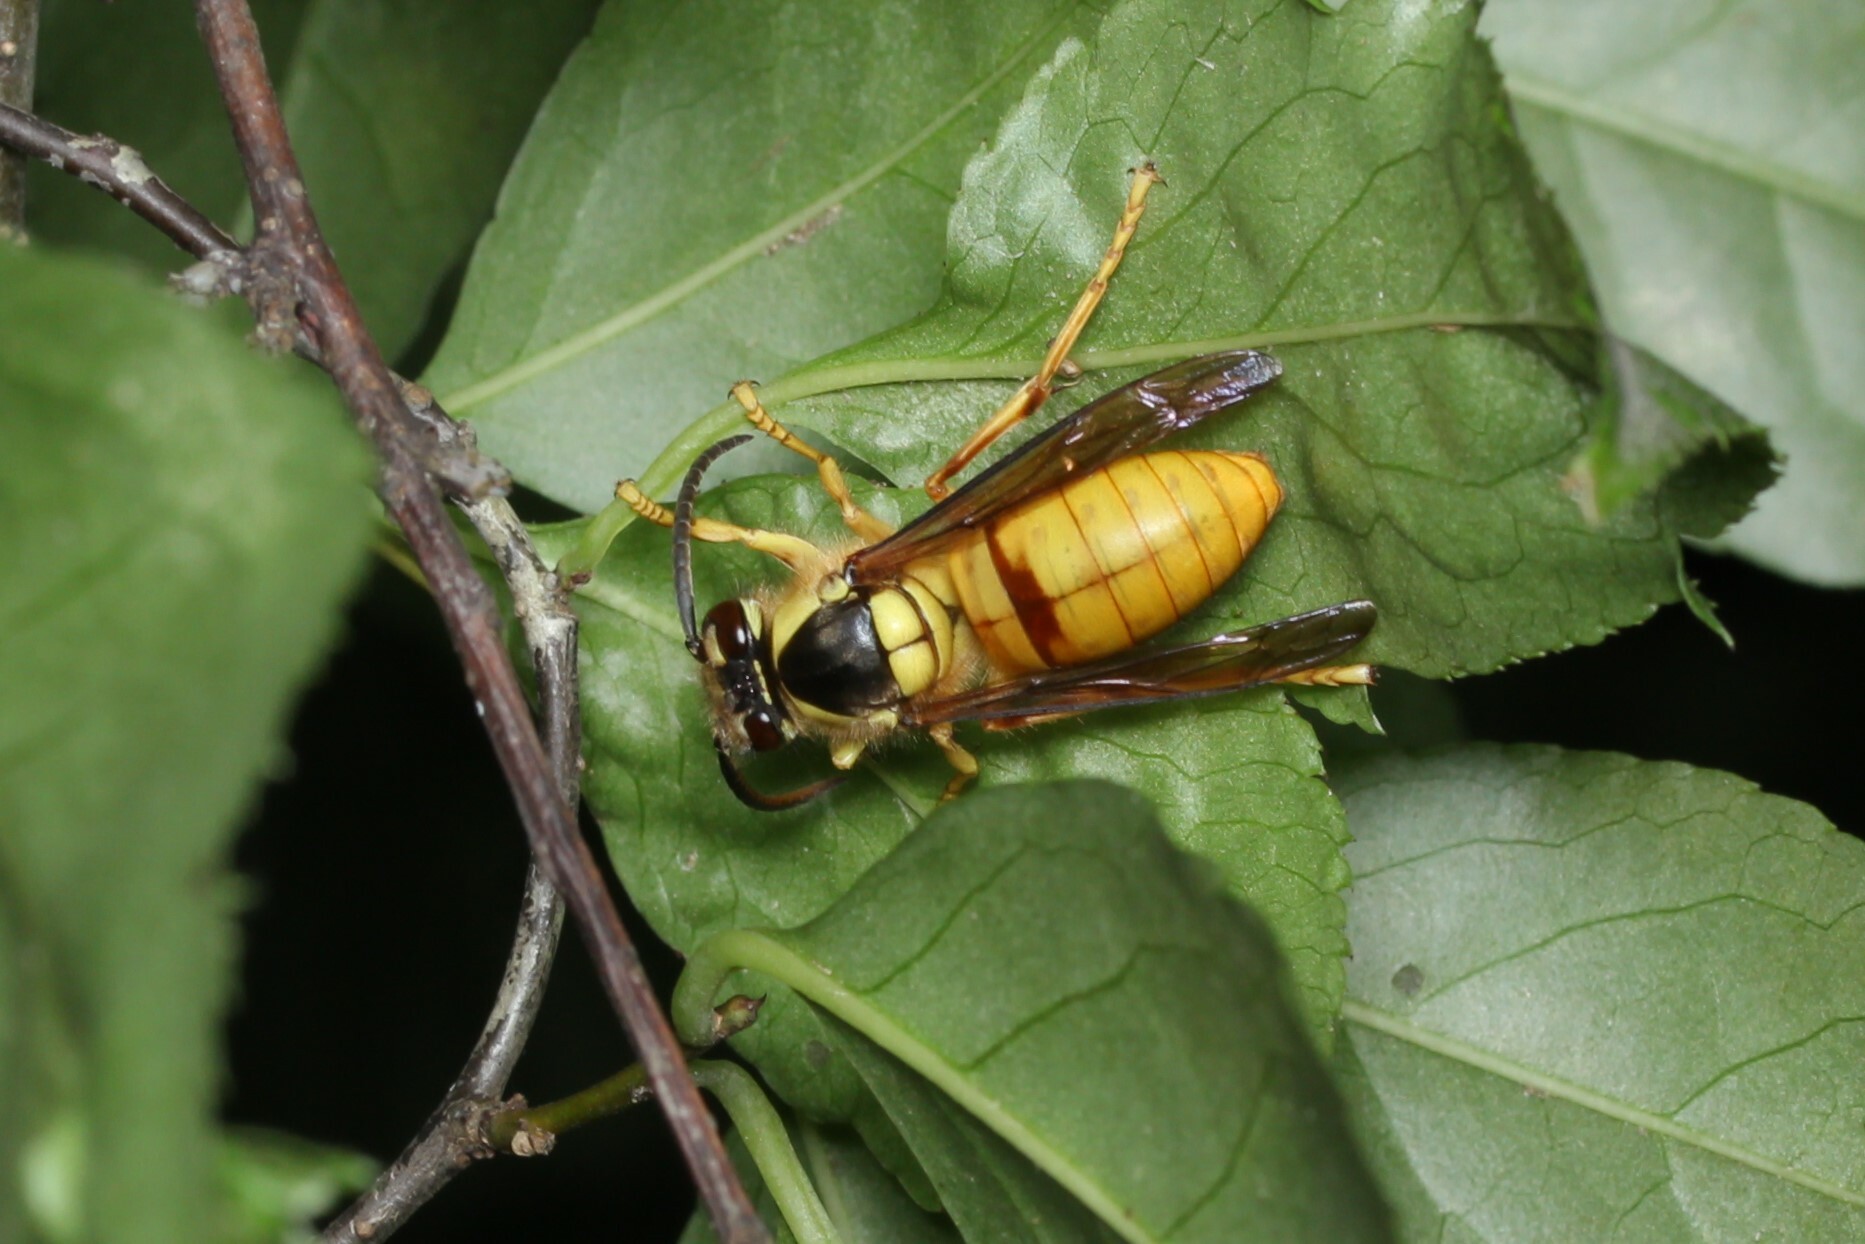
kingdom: Animalia
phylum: Arthropoda
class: Insecta
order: Hymenoptera
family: Vespidae
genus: Vespa
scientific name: Vespa bicolor
